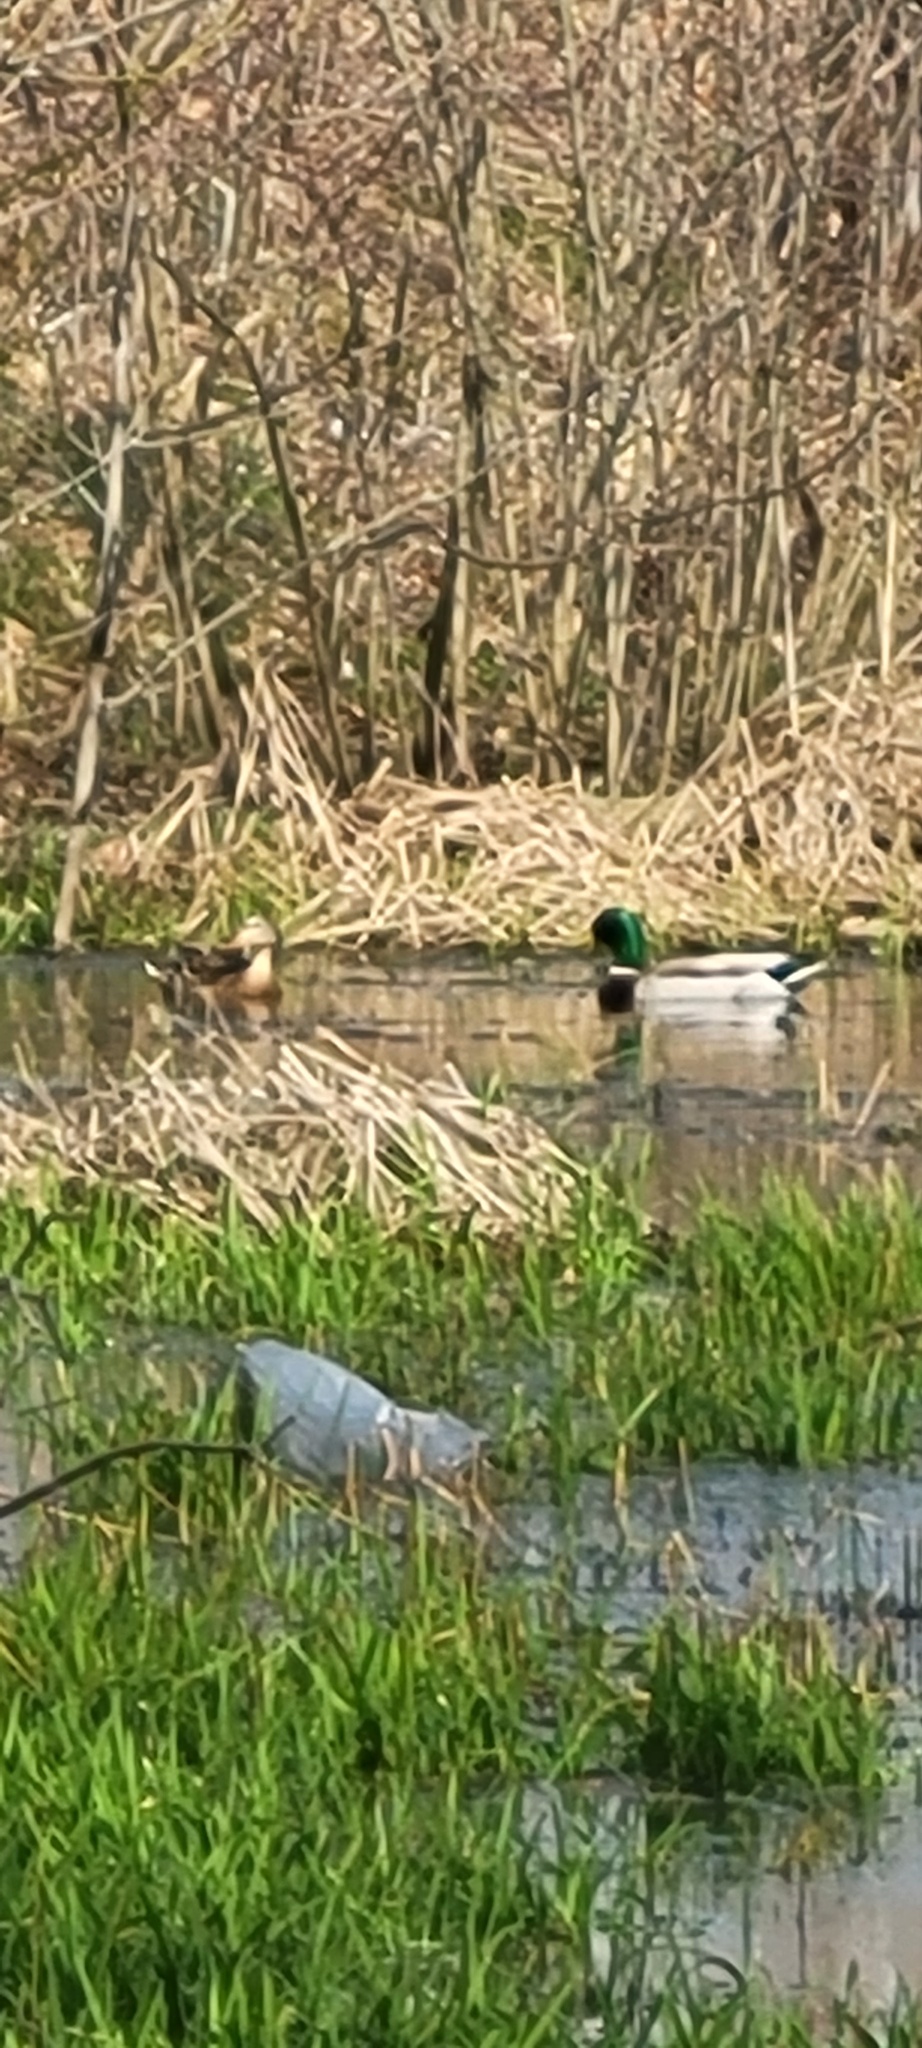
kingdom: Animalia
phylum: Chordata
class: Aves
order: Anseriformes
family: Anatidae
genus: Anas
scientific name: Anas platyrhynchos
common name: Mallard
